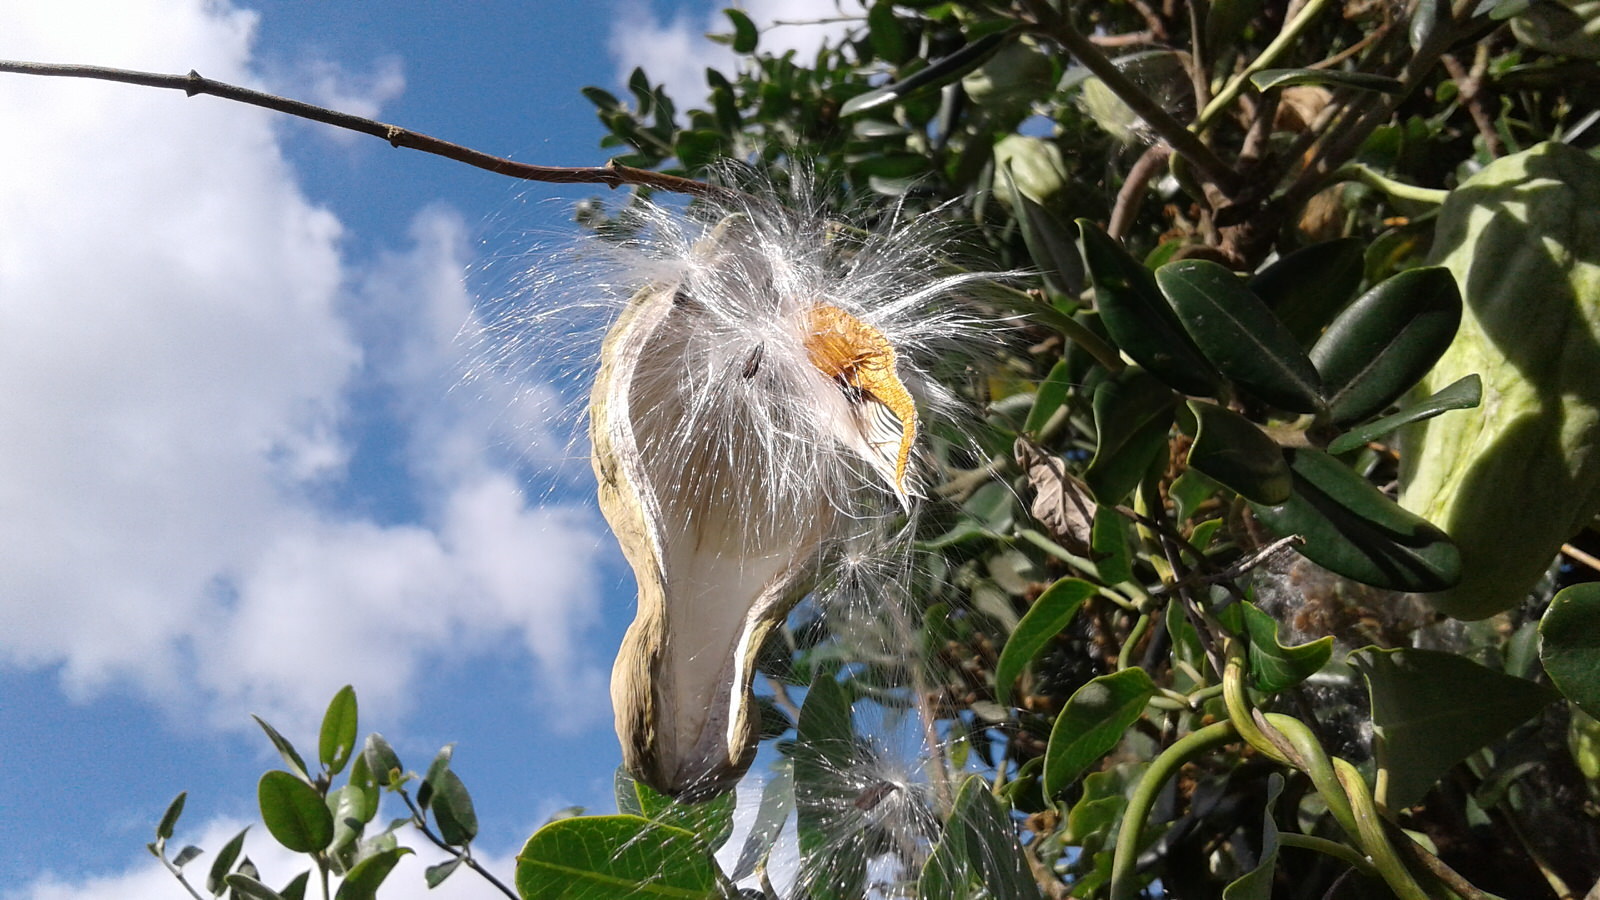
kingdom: Plantae
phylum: Tracheophyta
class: Magnoliopsida
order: Gentianales
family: Apocynaceae
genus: Araujia
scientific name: Araujia sericifera
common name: White bladderflower
